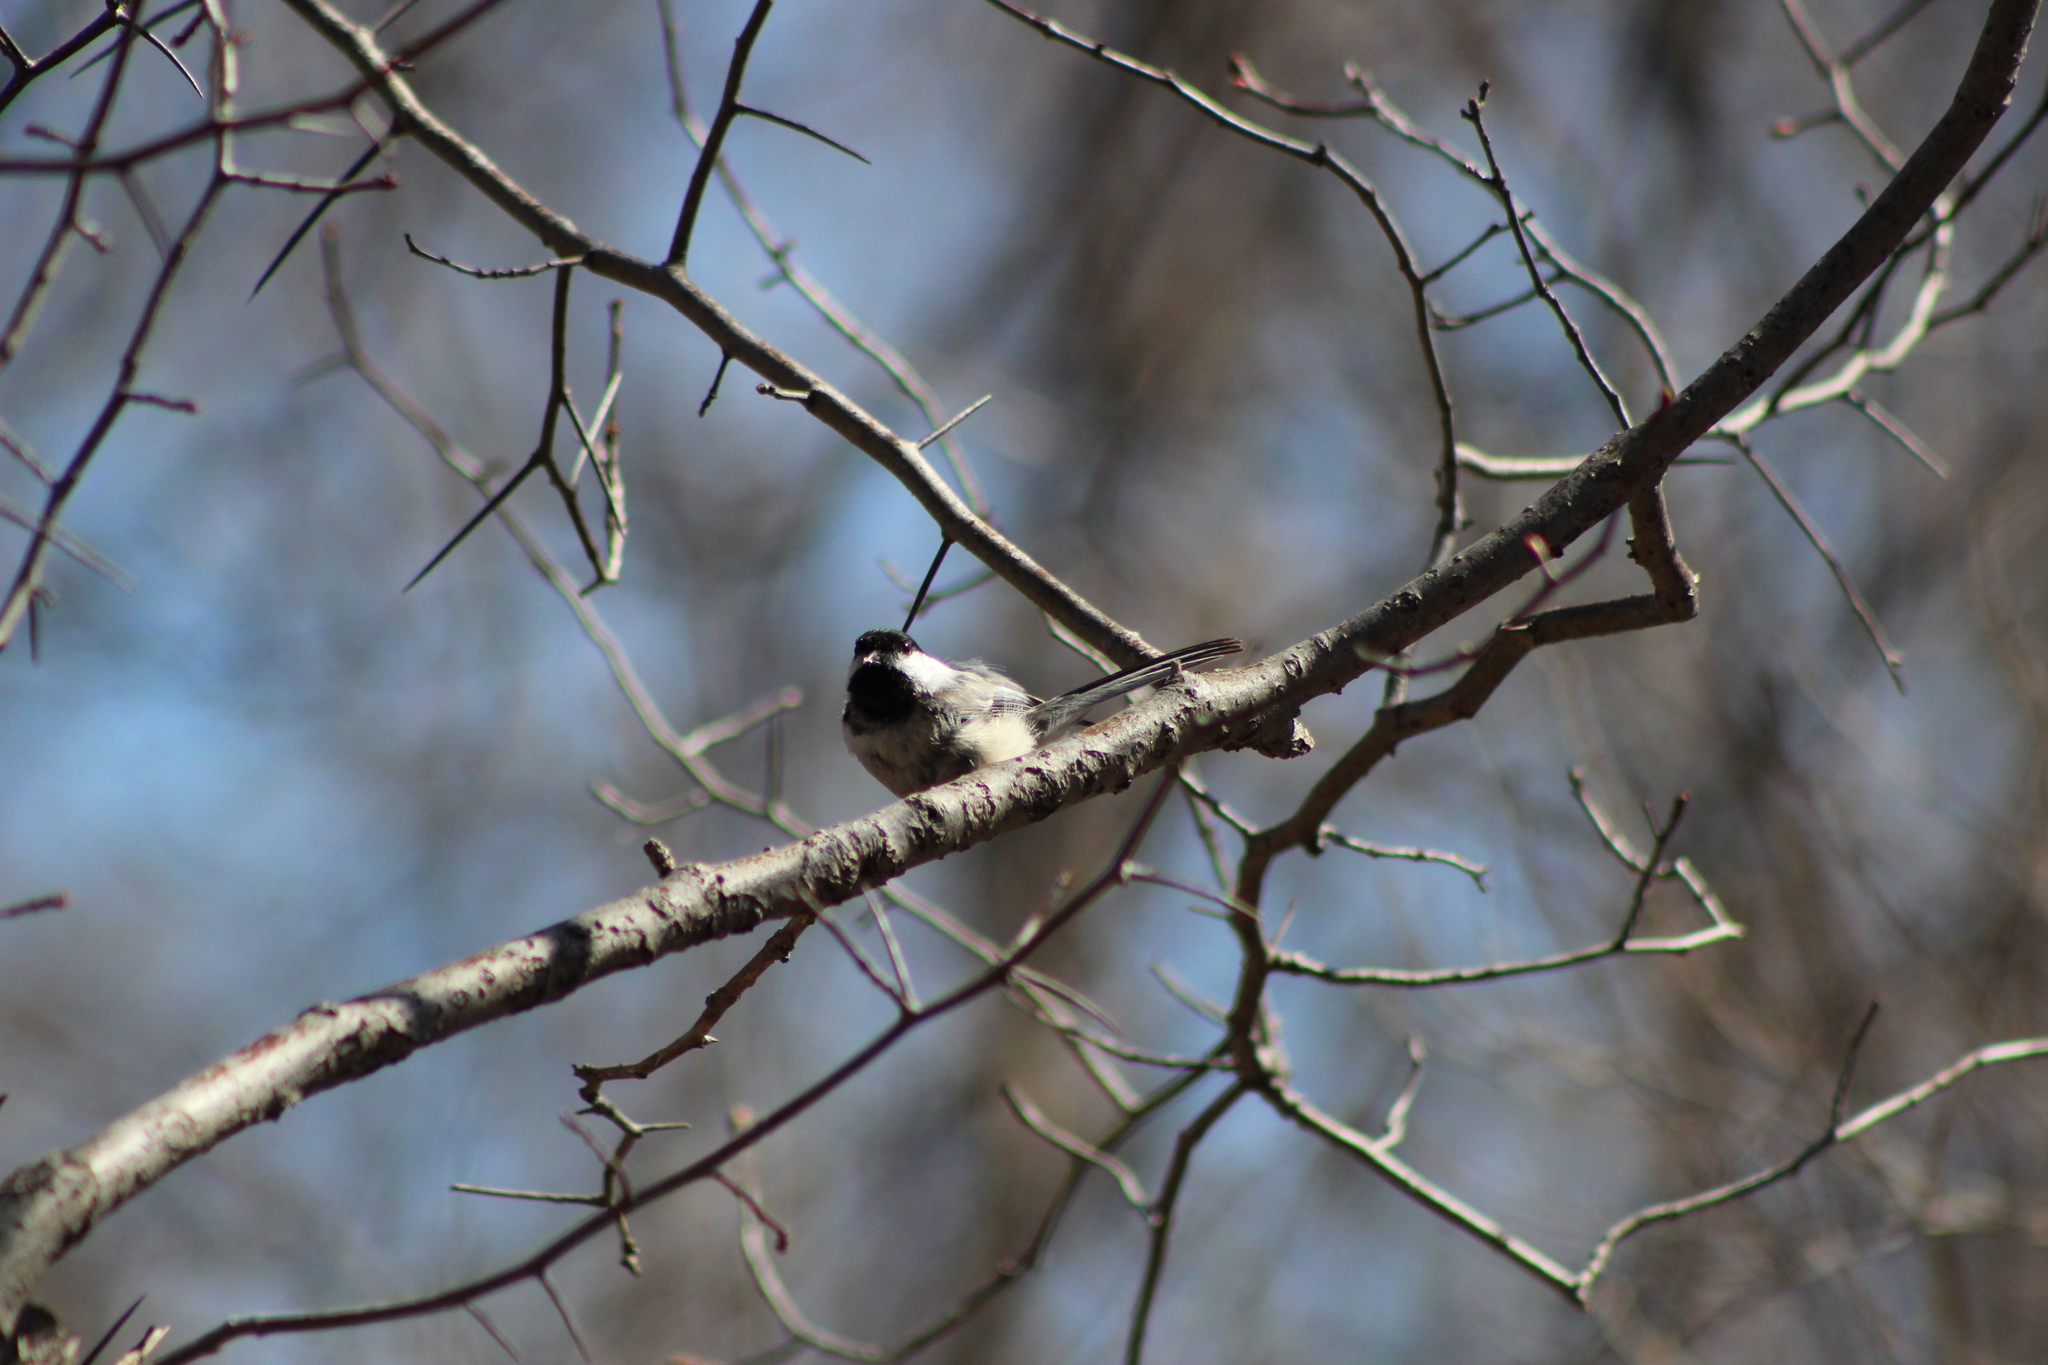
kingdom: Animalia
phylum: Chordata
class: Aves
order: Passeriformes
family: Paridae
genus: Poecile
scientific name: Poecile atricapillus
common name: Black-capped chickadee
